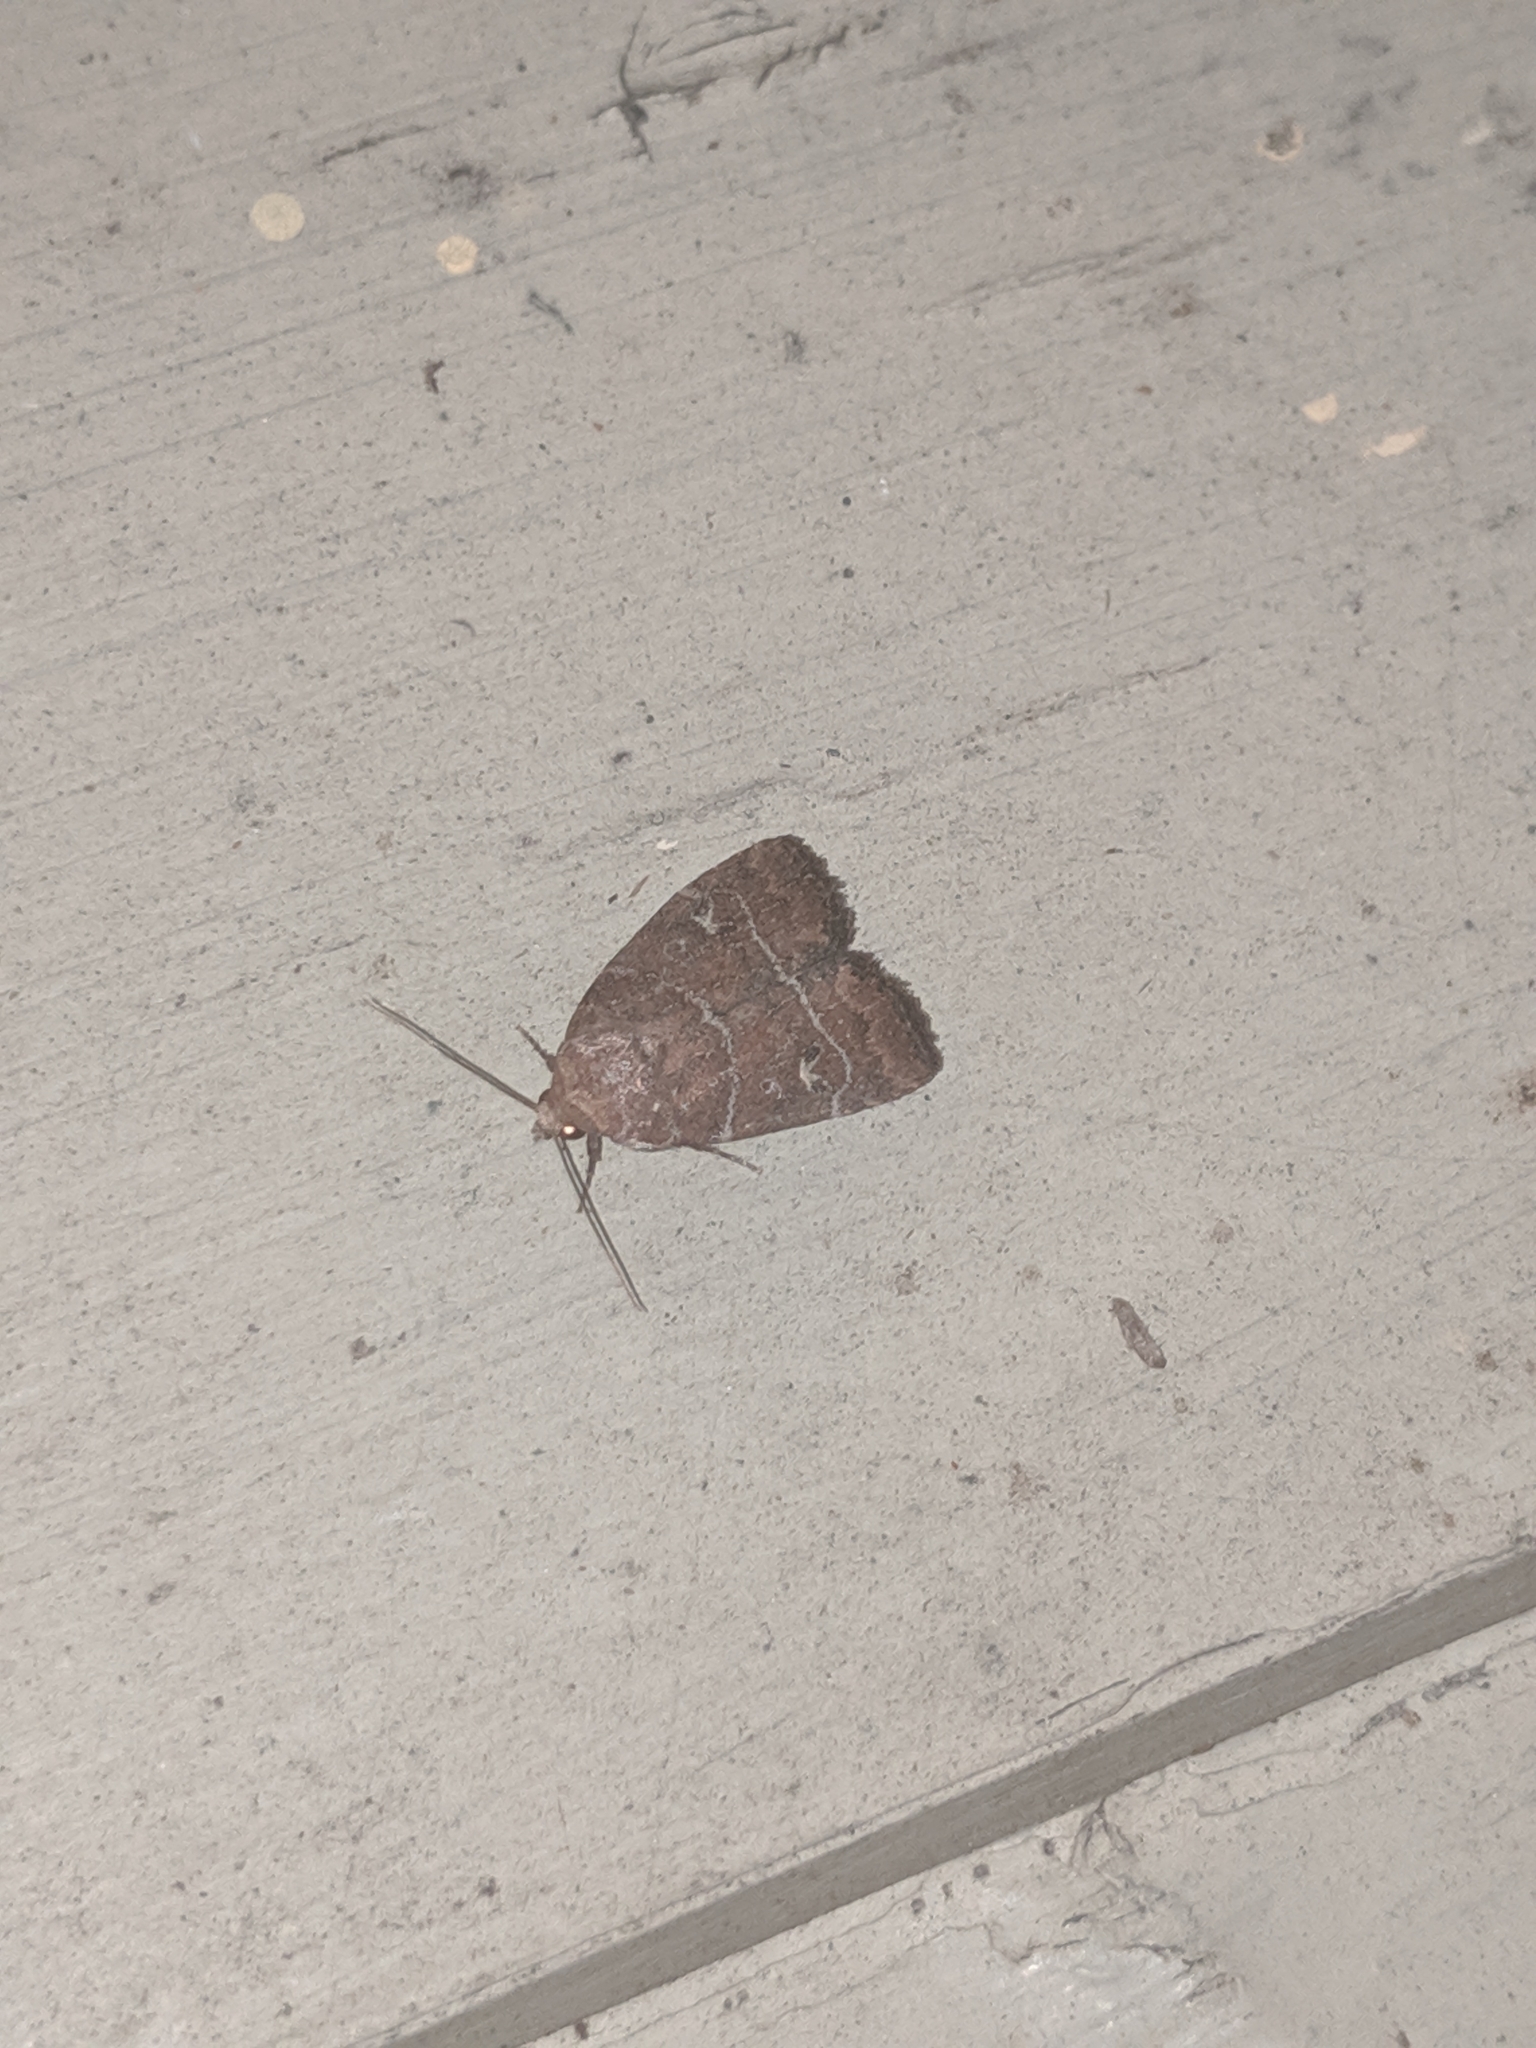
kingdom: Animalia
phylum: Arthropoda
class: Insecta
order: Lepidoptera
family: Noctuidae
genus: Elaphria
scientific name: Elaphria grata
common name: Grateful midget moth
